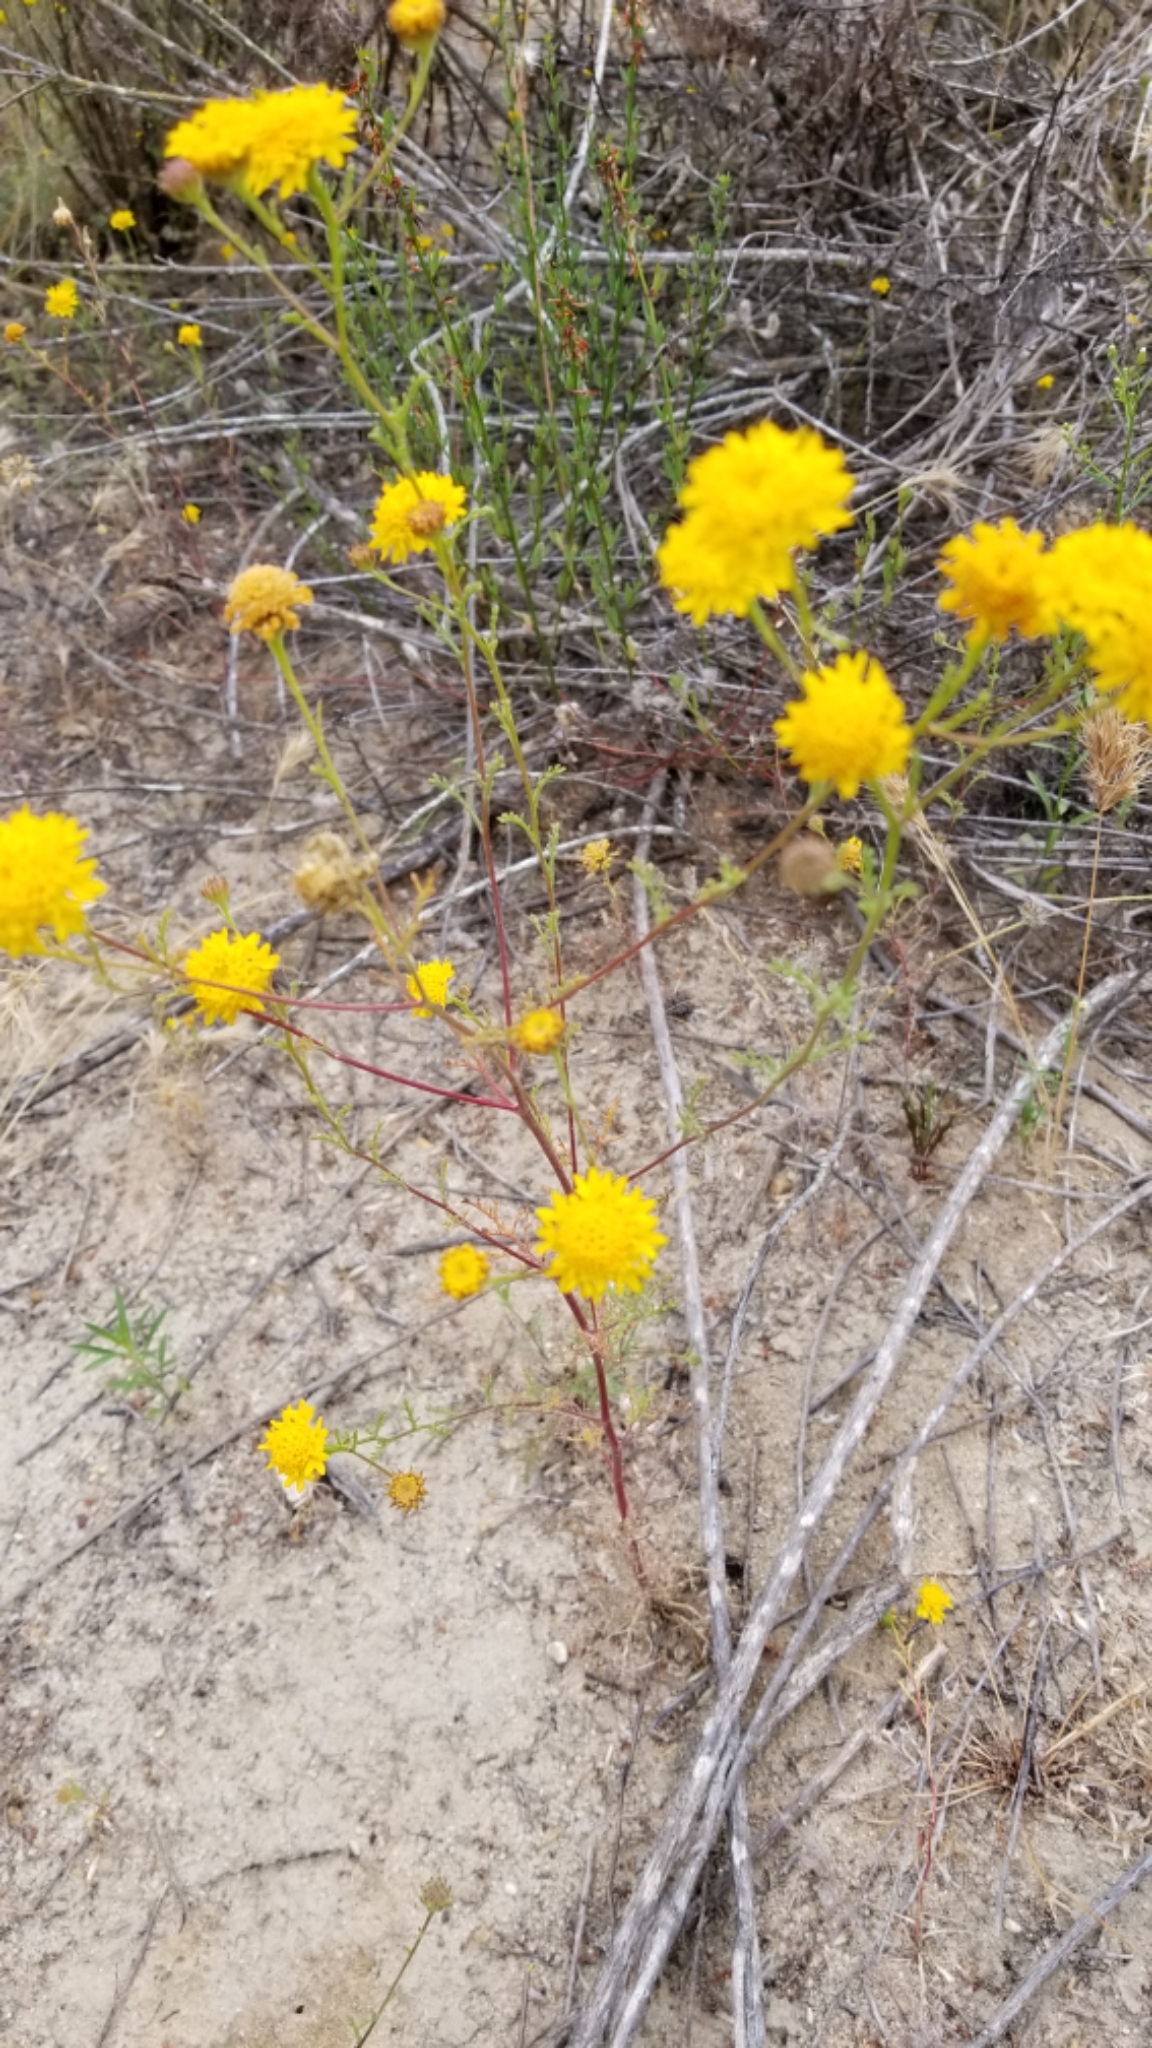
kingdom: Plantae
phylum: Tracheophyta
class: Magnoliopsida
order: Asterales
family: Asteraceae
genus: Chaenactis
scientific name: Chaenactis glabriuscula
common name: Yellow pincushion
